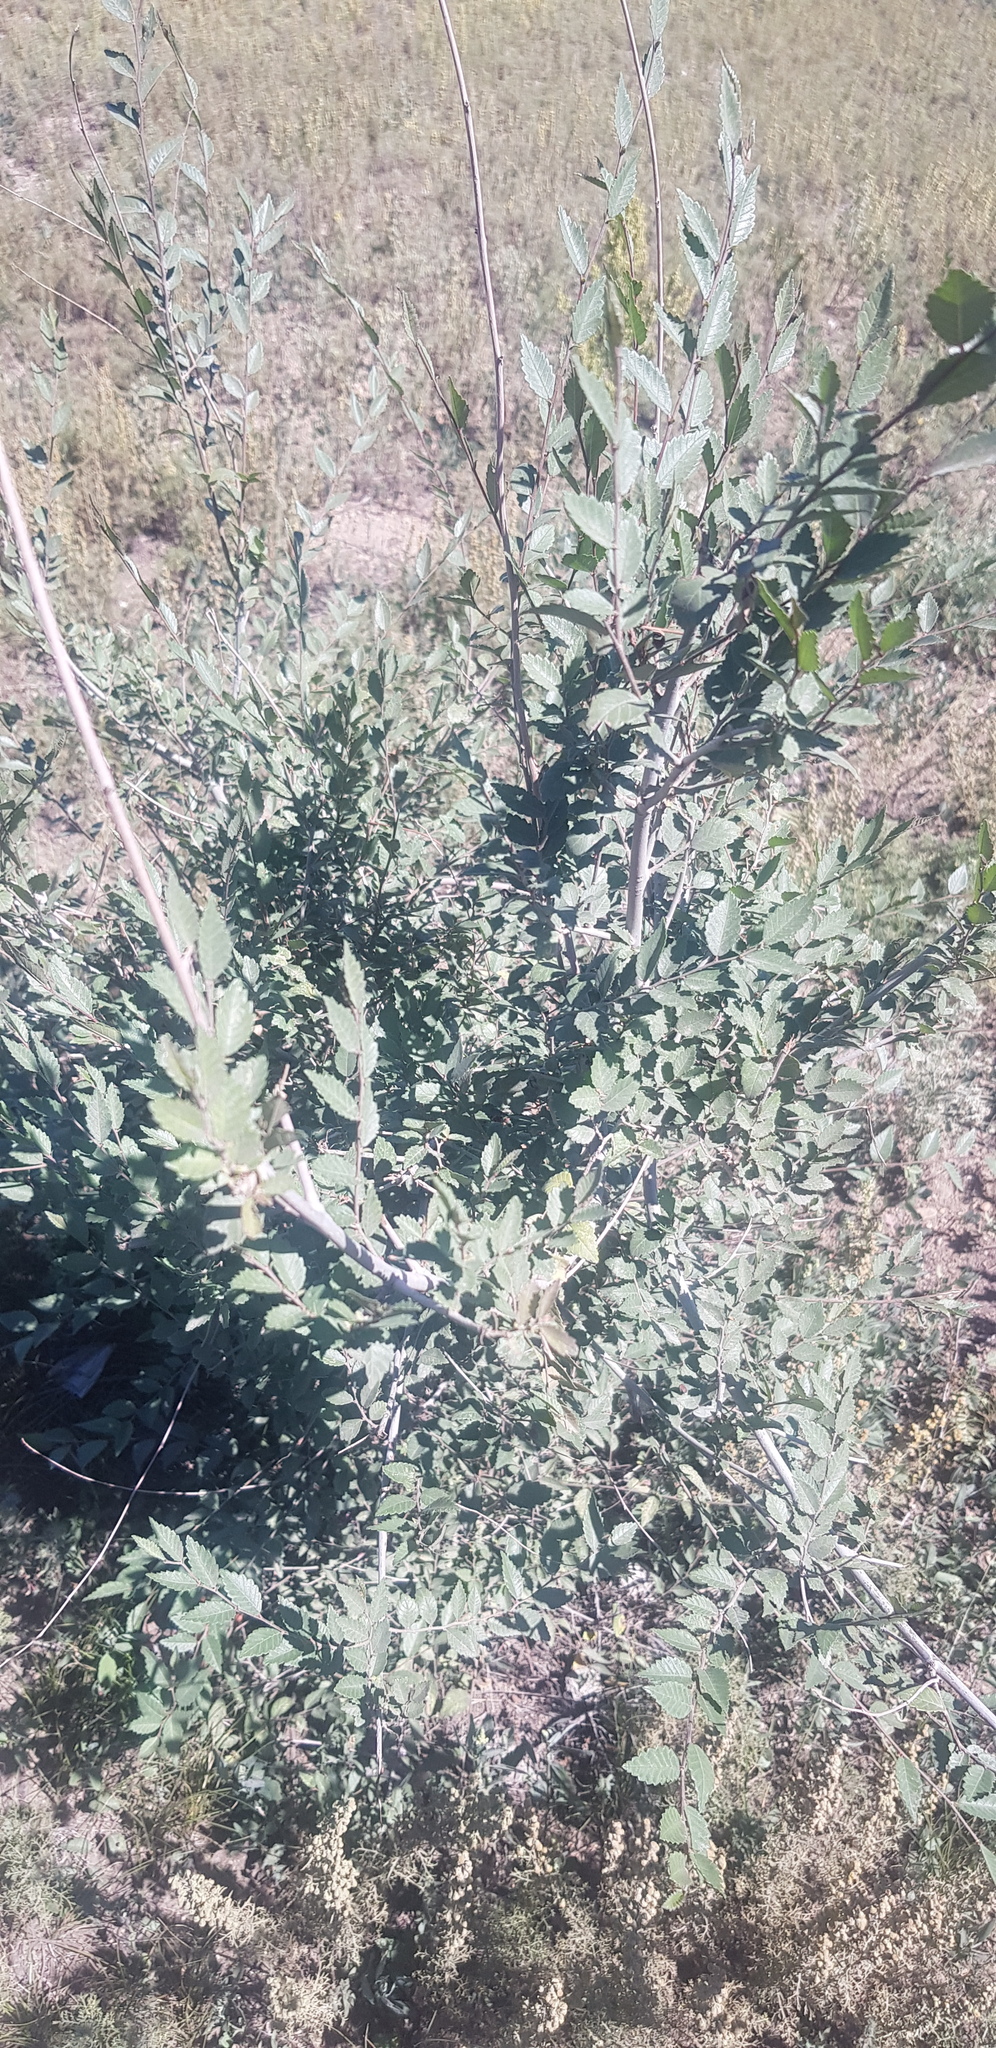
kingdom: Plantae
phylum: Tracheophyta
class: Magnoliopsida
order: Rosales
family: Ulmaceae
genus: Ulmus
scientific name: Ulmus pumila
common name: Siberian elm
